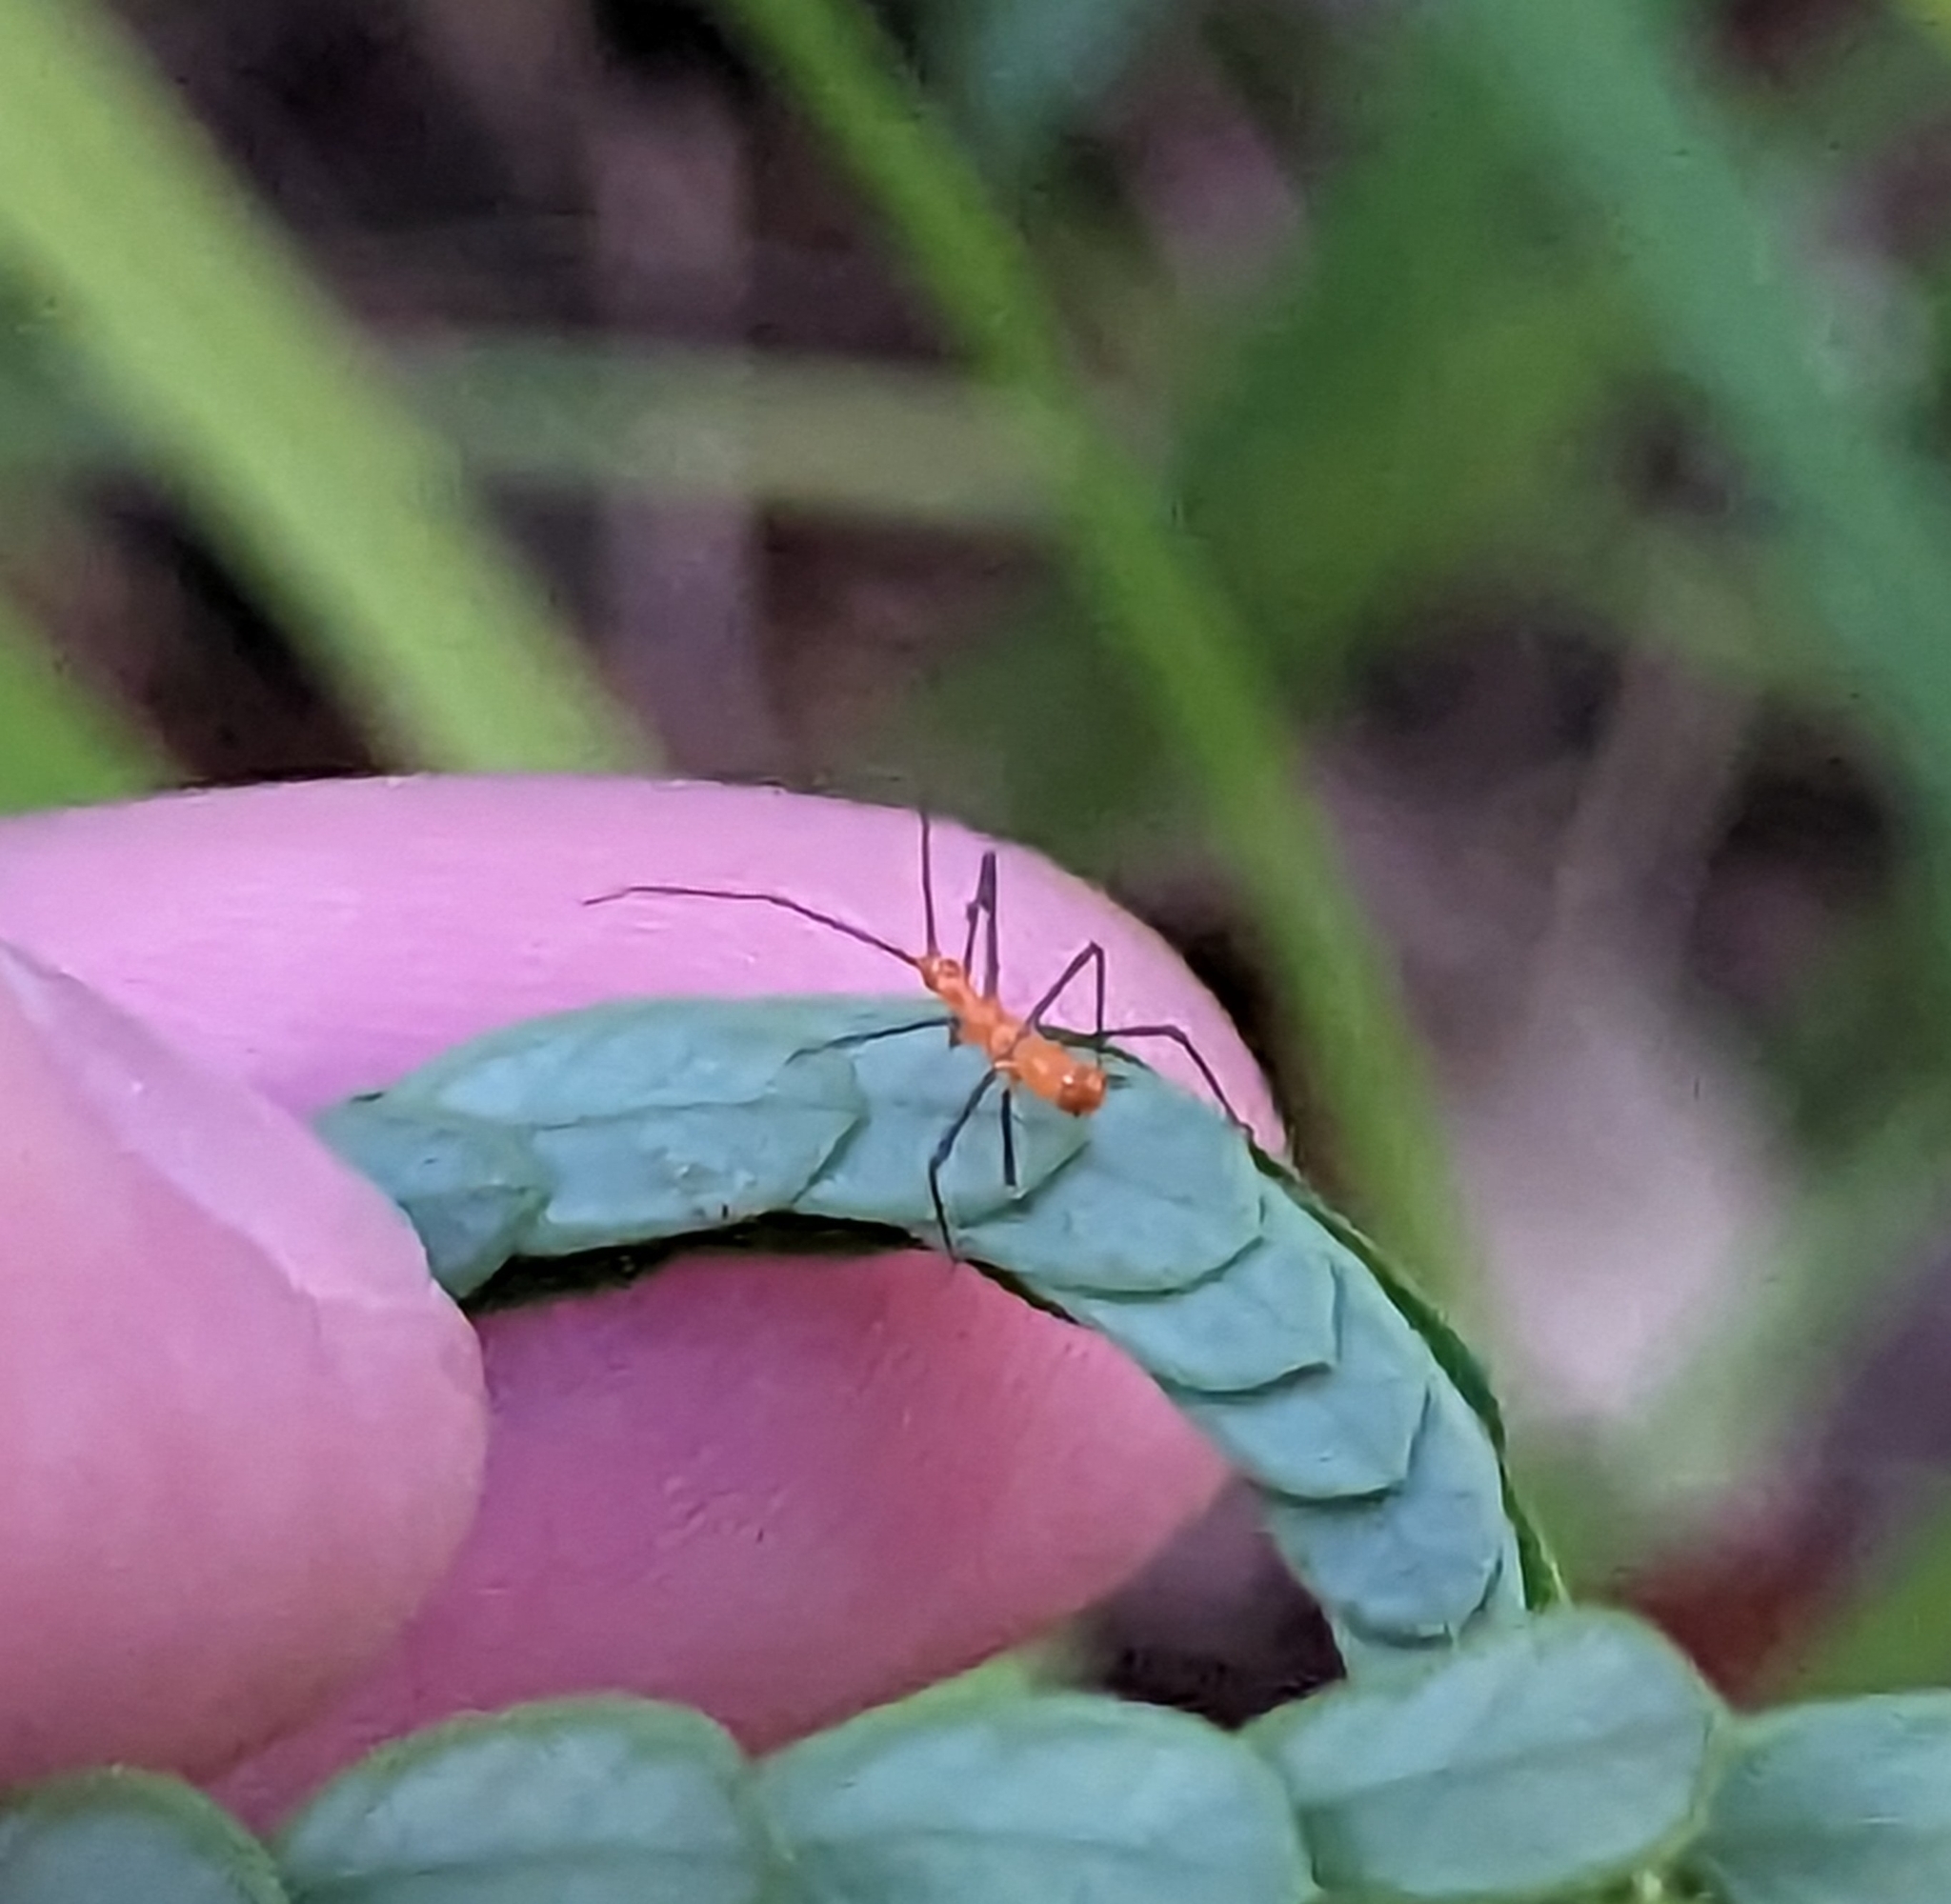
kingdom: Animalia
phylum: Arthropoda
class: Insecta
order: Hemiptera
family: Reduviidae
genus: Zelus
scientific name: Zelus longipes
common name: Milkweed assassin bug
